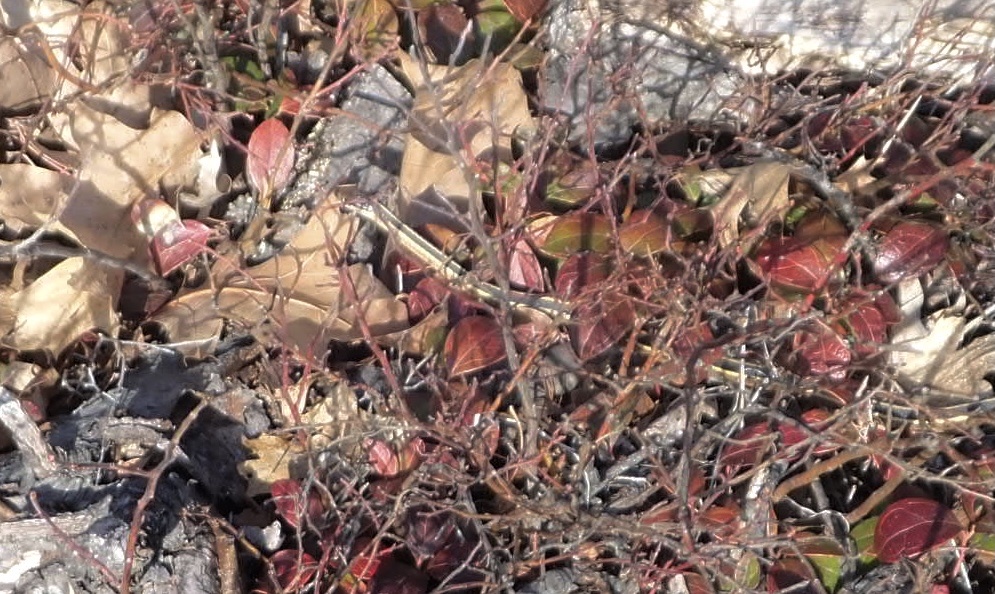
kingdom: Animalia
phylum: Chordata
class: Squamata
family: Colubridae
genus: Thamnophis
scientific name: Thamnophis saurita
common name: Eastern ribbonsnake
